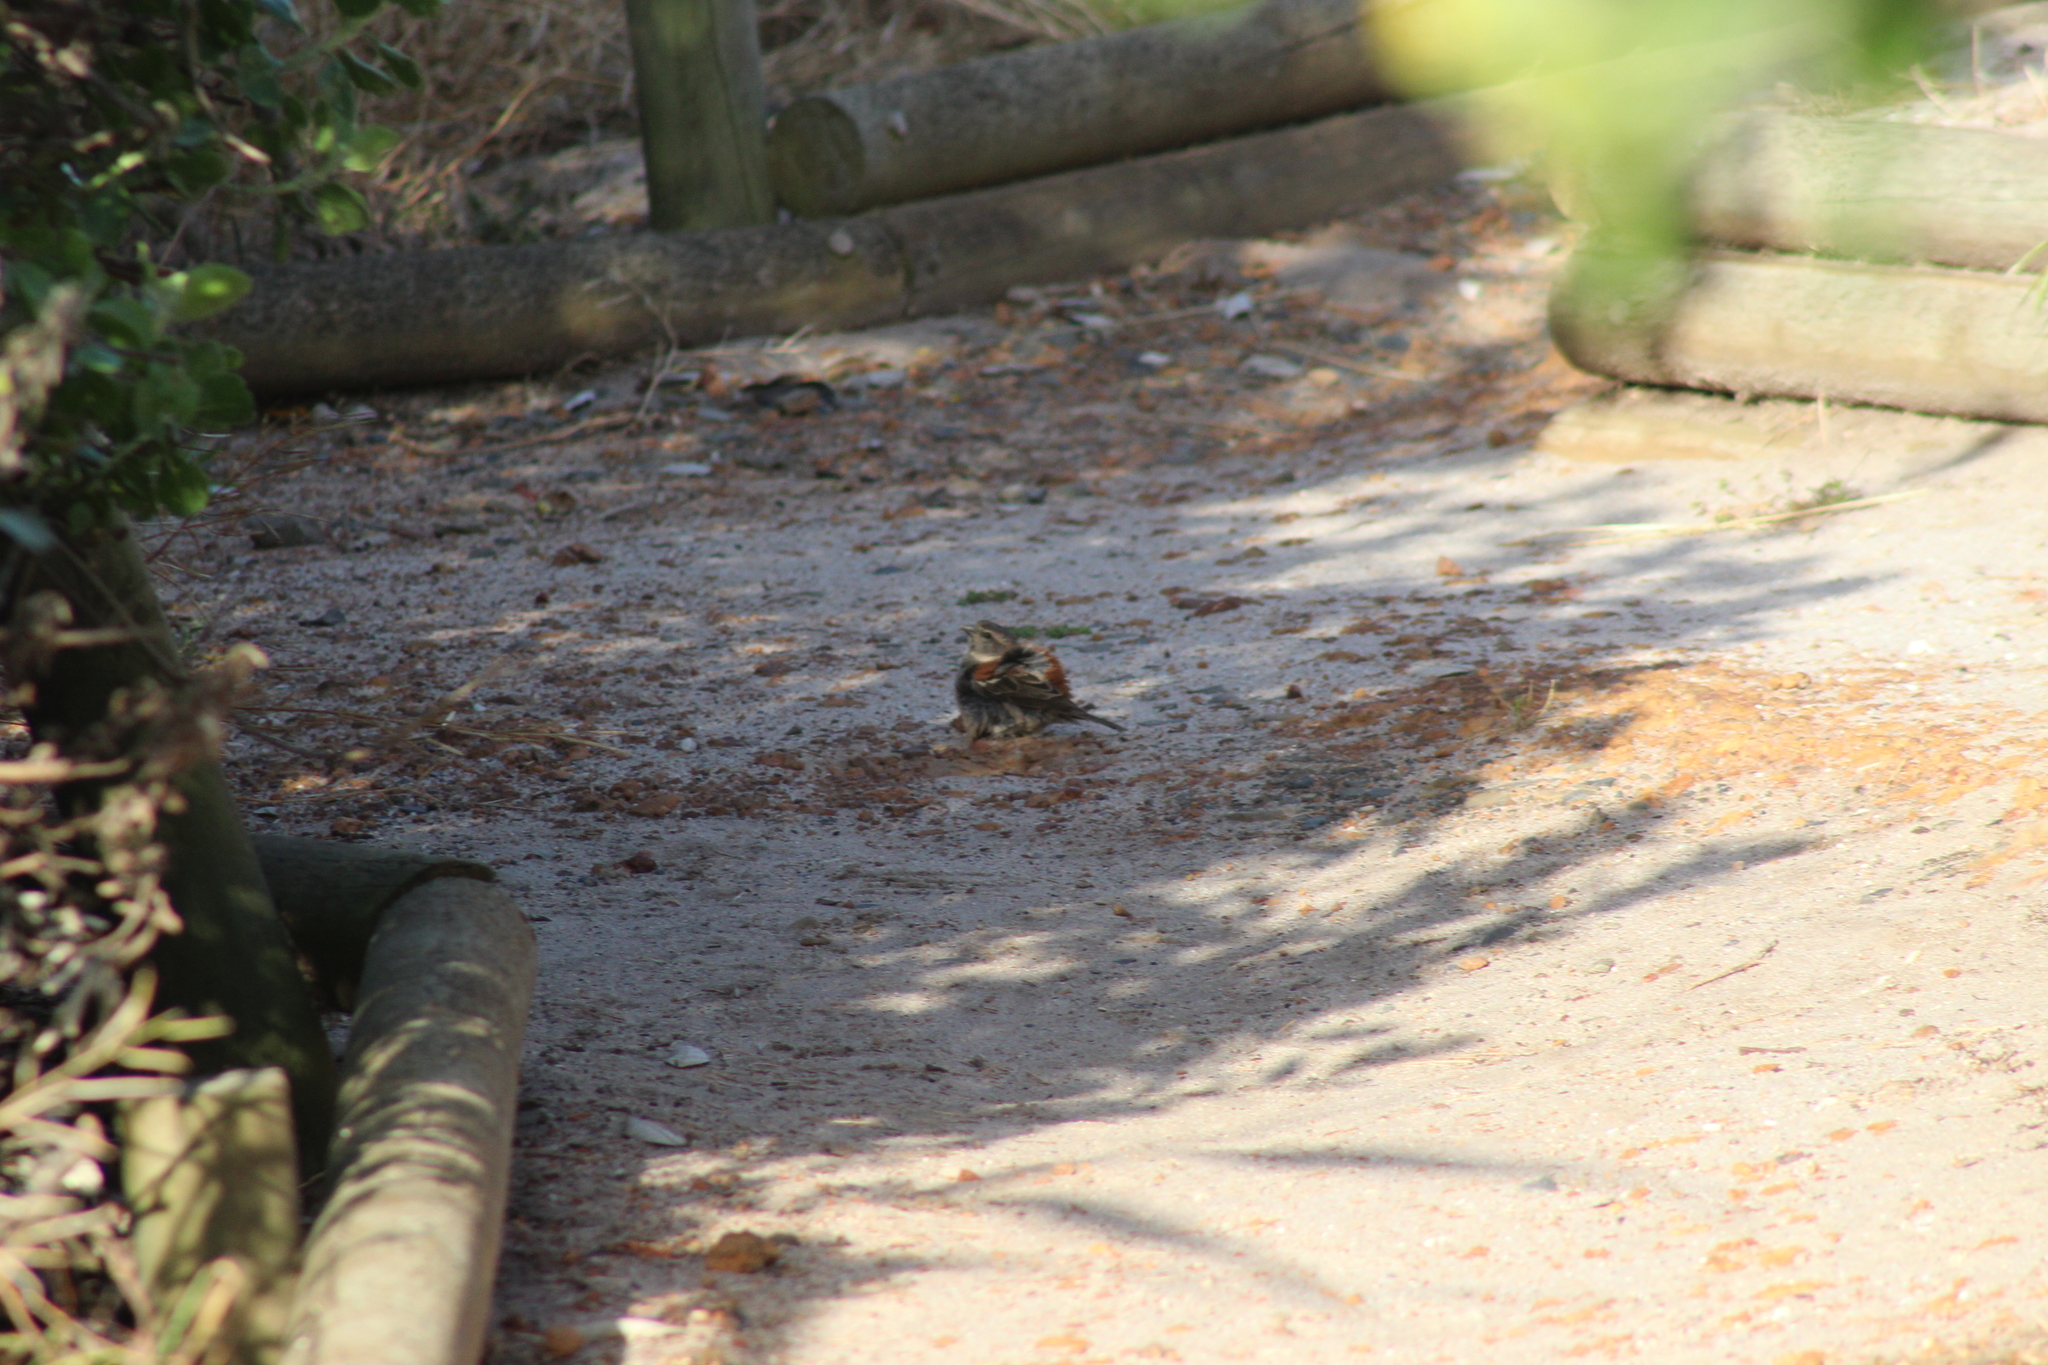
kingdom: Animalia
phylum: Chordata
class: Aves
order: Passeriformes
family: Passeridae
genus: Passer
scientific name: Passer melanurus
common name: Cape sparrow
